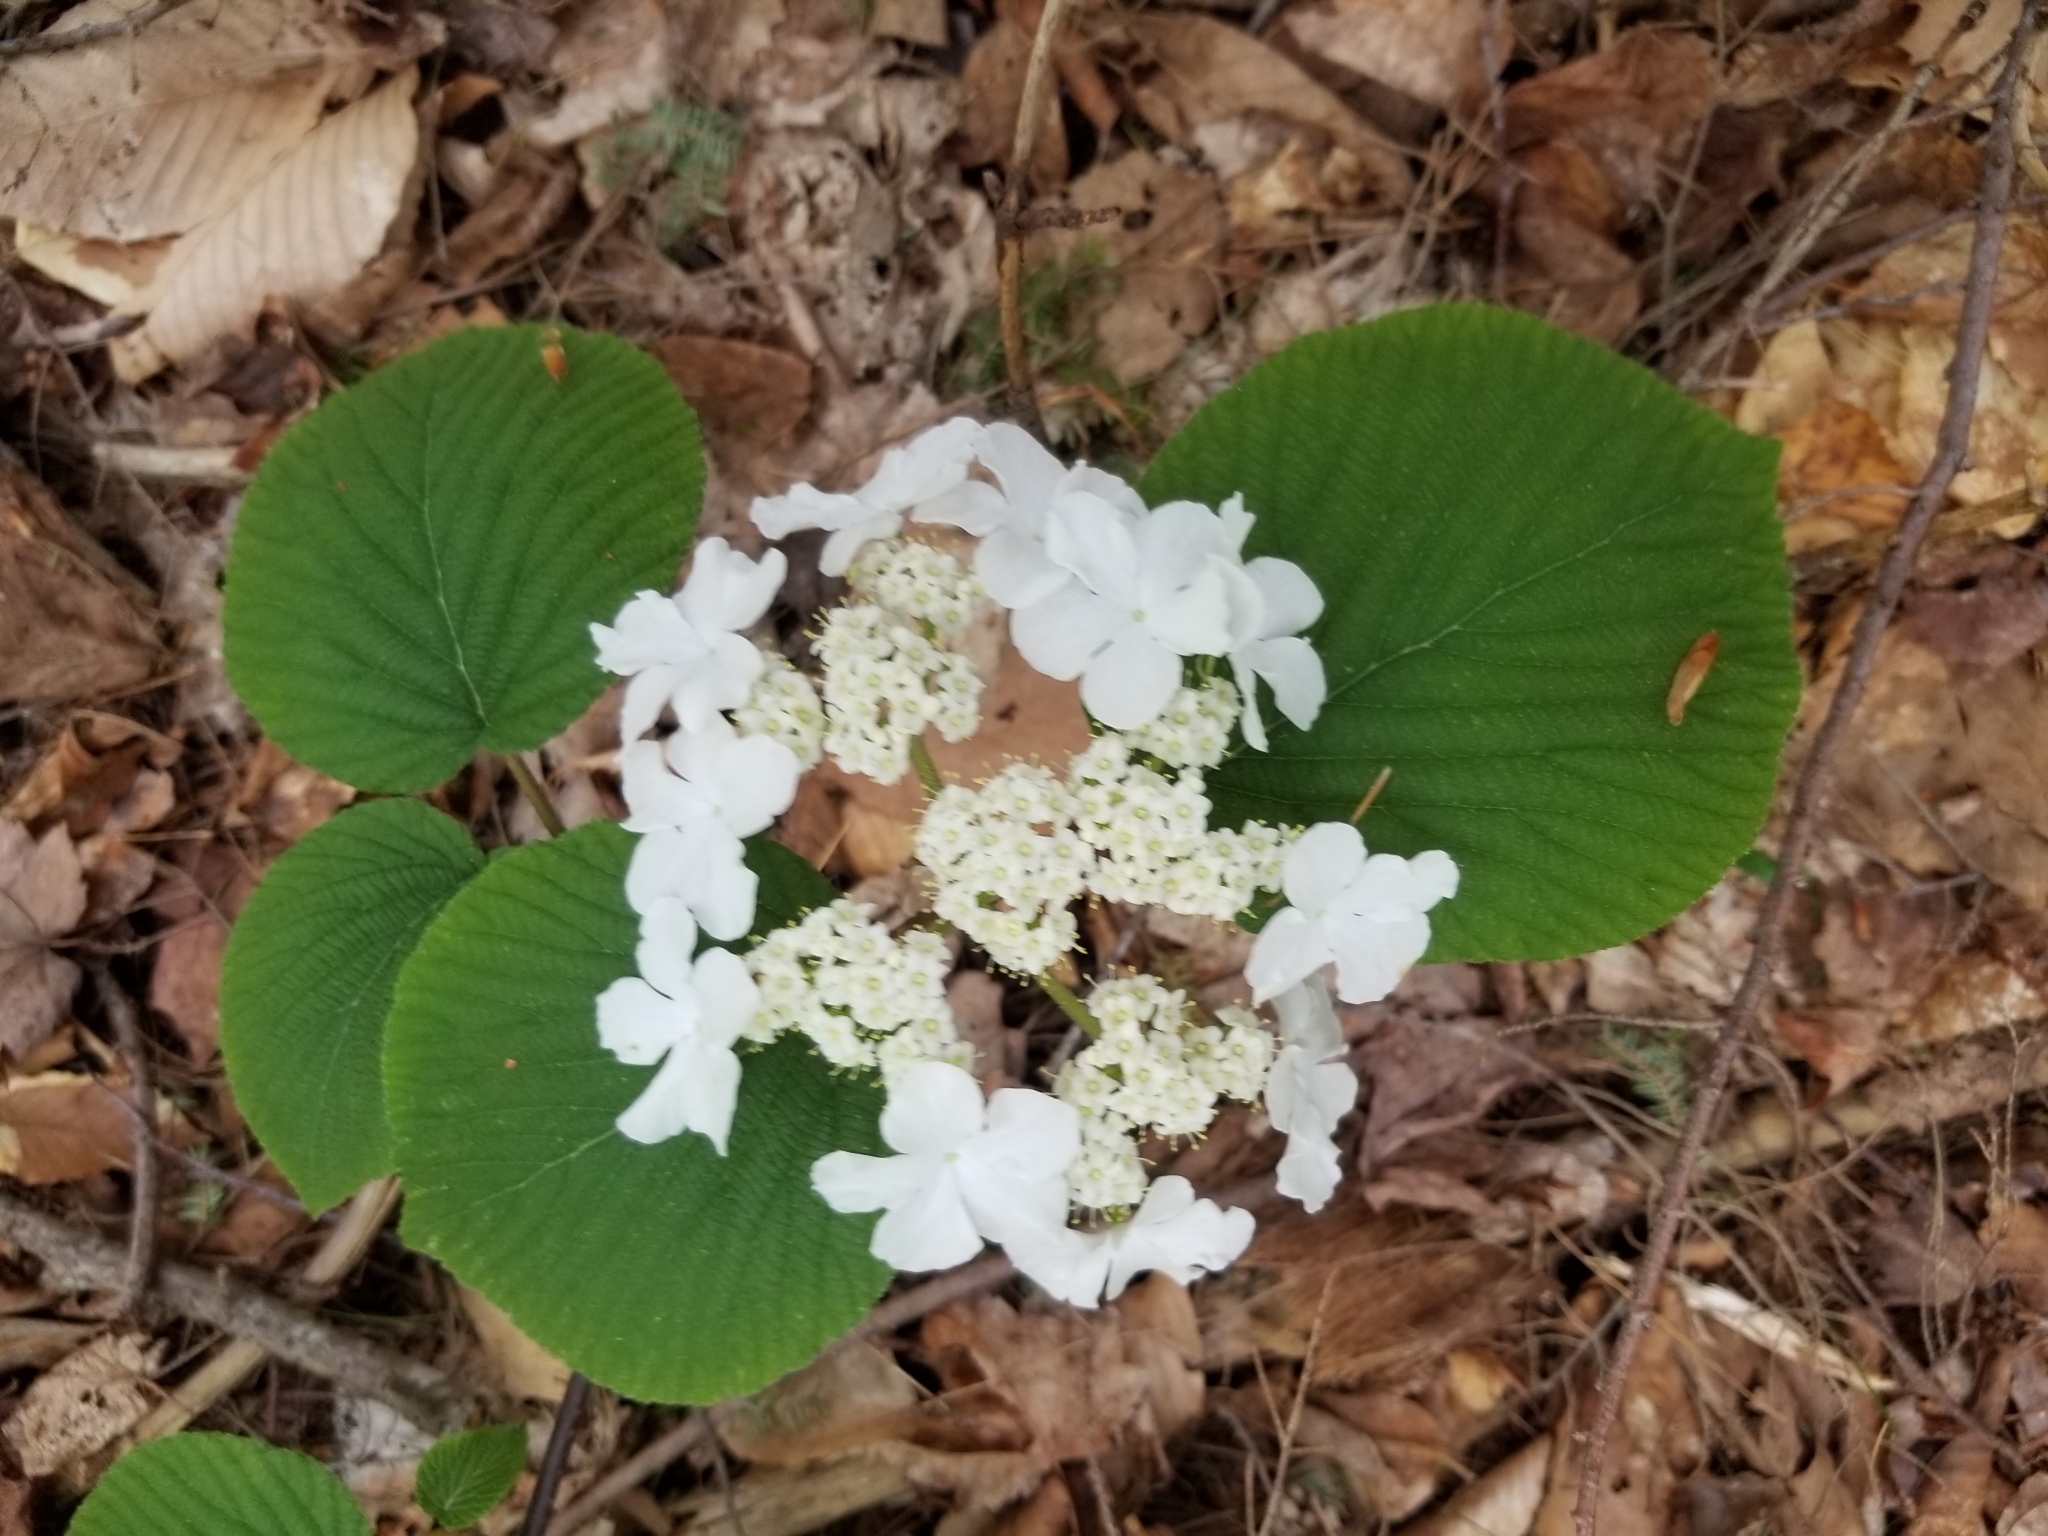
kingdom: Plantae
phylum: Tracheophyta
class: Magnoliopsida
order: Dipsacales
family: Viburnaceae
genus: Viburnum
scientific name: Viburnum lantanoides
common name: Hobblebush
